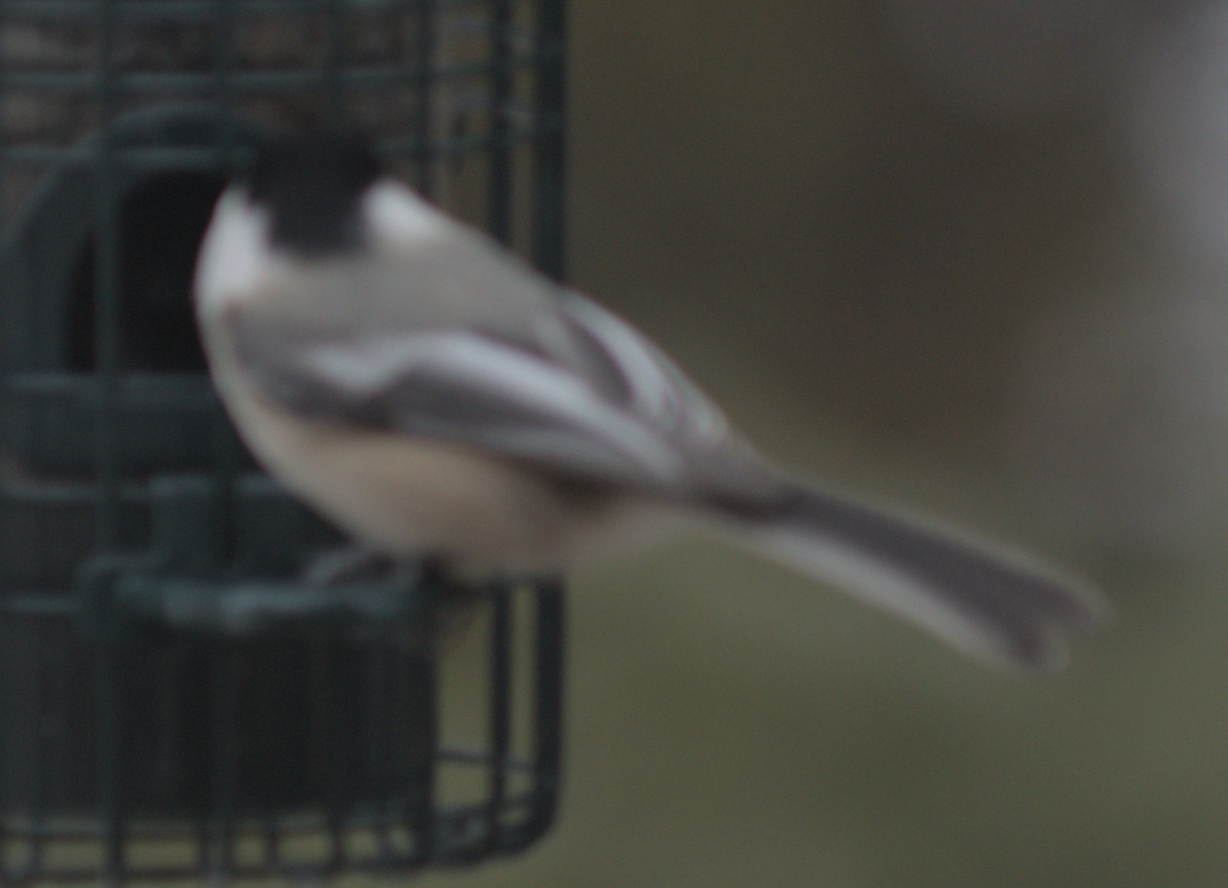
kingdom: Animalia
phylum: Chordata
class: Aves
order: Passeriformes
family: Paridae
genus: Poecile
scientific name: Poecile atricapillus
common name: Black-capped chickadee
